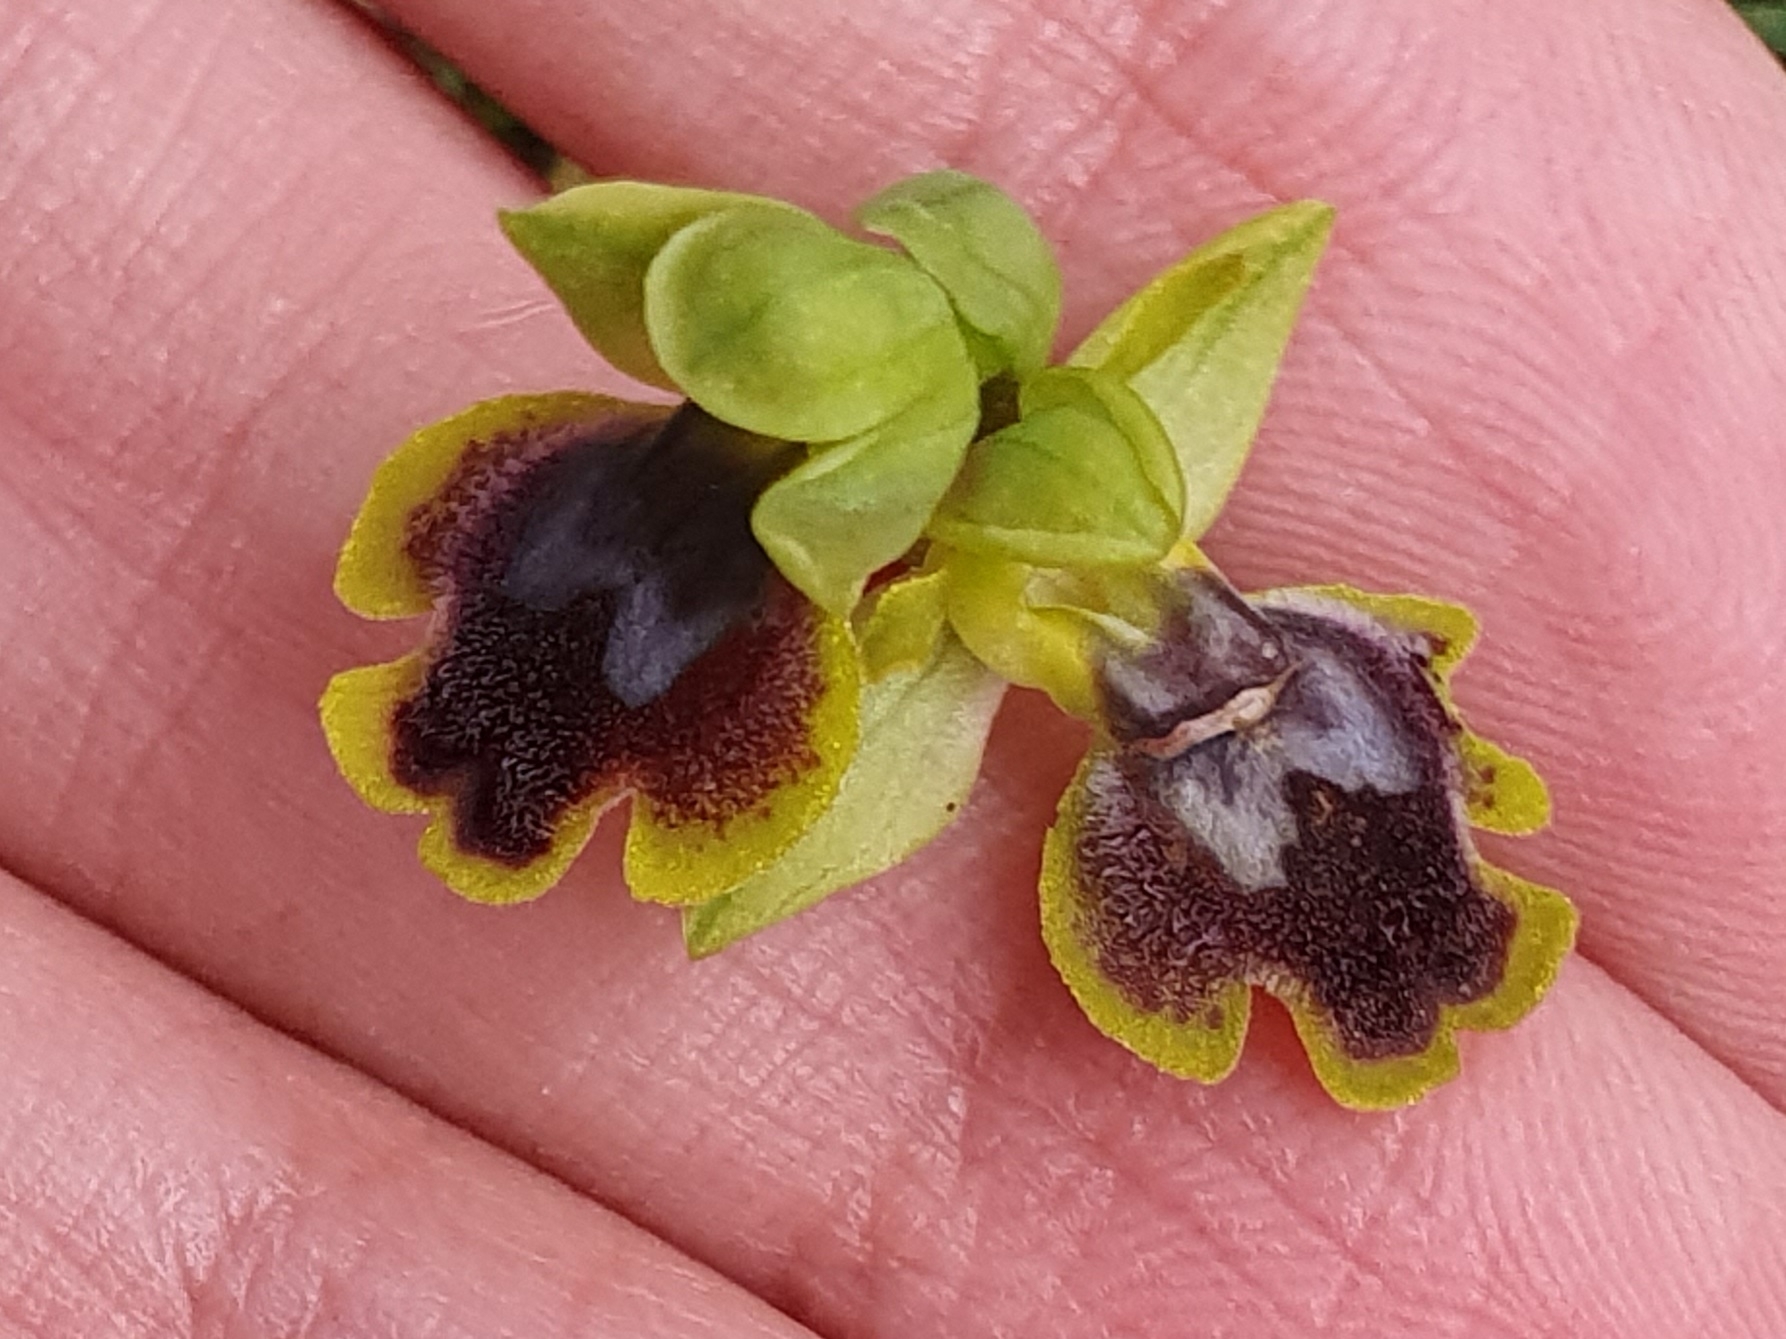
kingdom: Plantae
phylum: Tracheophyta
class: Liliopsida
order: Asparagales
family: Orchidaceae
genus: Ophrys
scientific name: Ophrys battandieri
